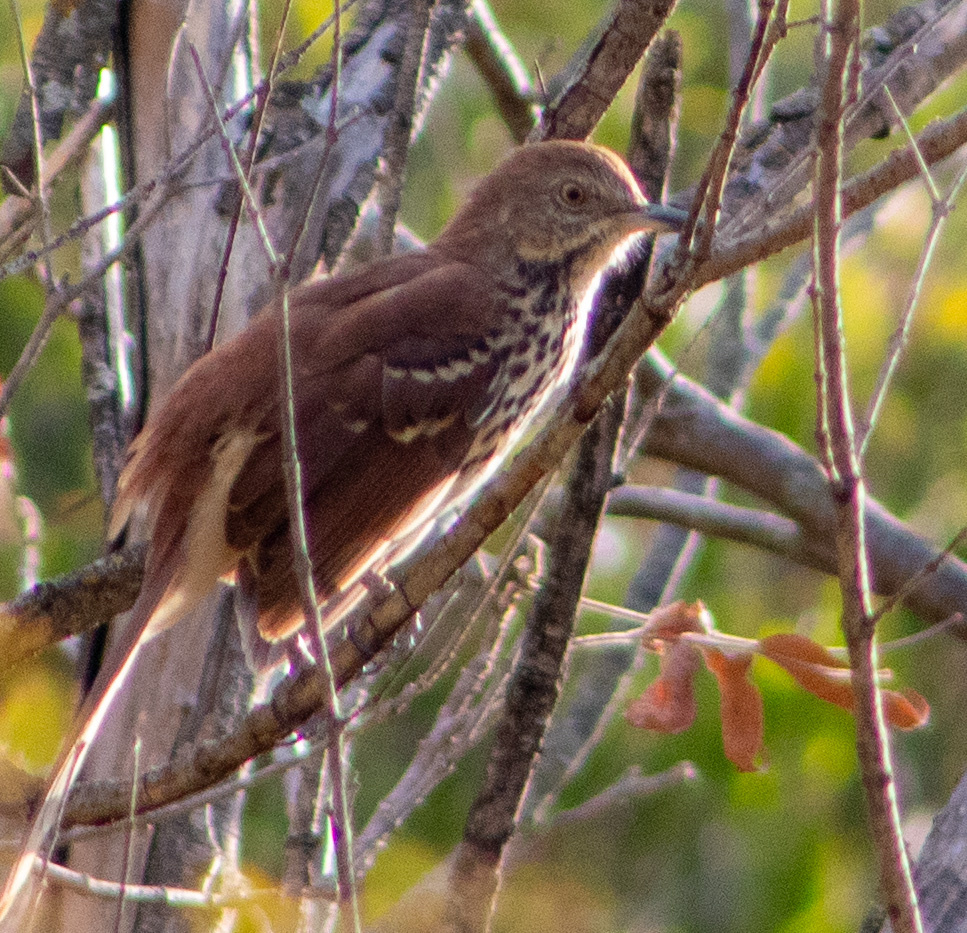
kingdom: Animalia
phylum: Chordata
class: Aves
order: Passeriformes
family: Mimidae
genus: Toxostoma
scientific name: Toxostoma rufum
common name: Brown thrasher
